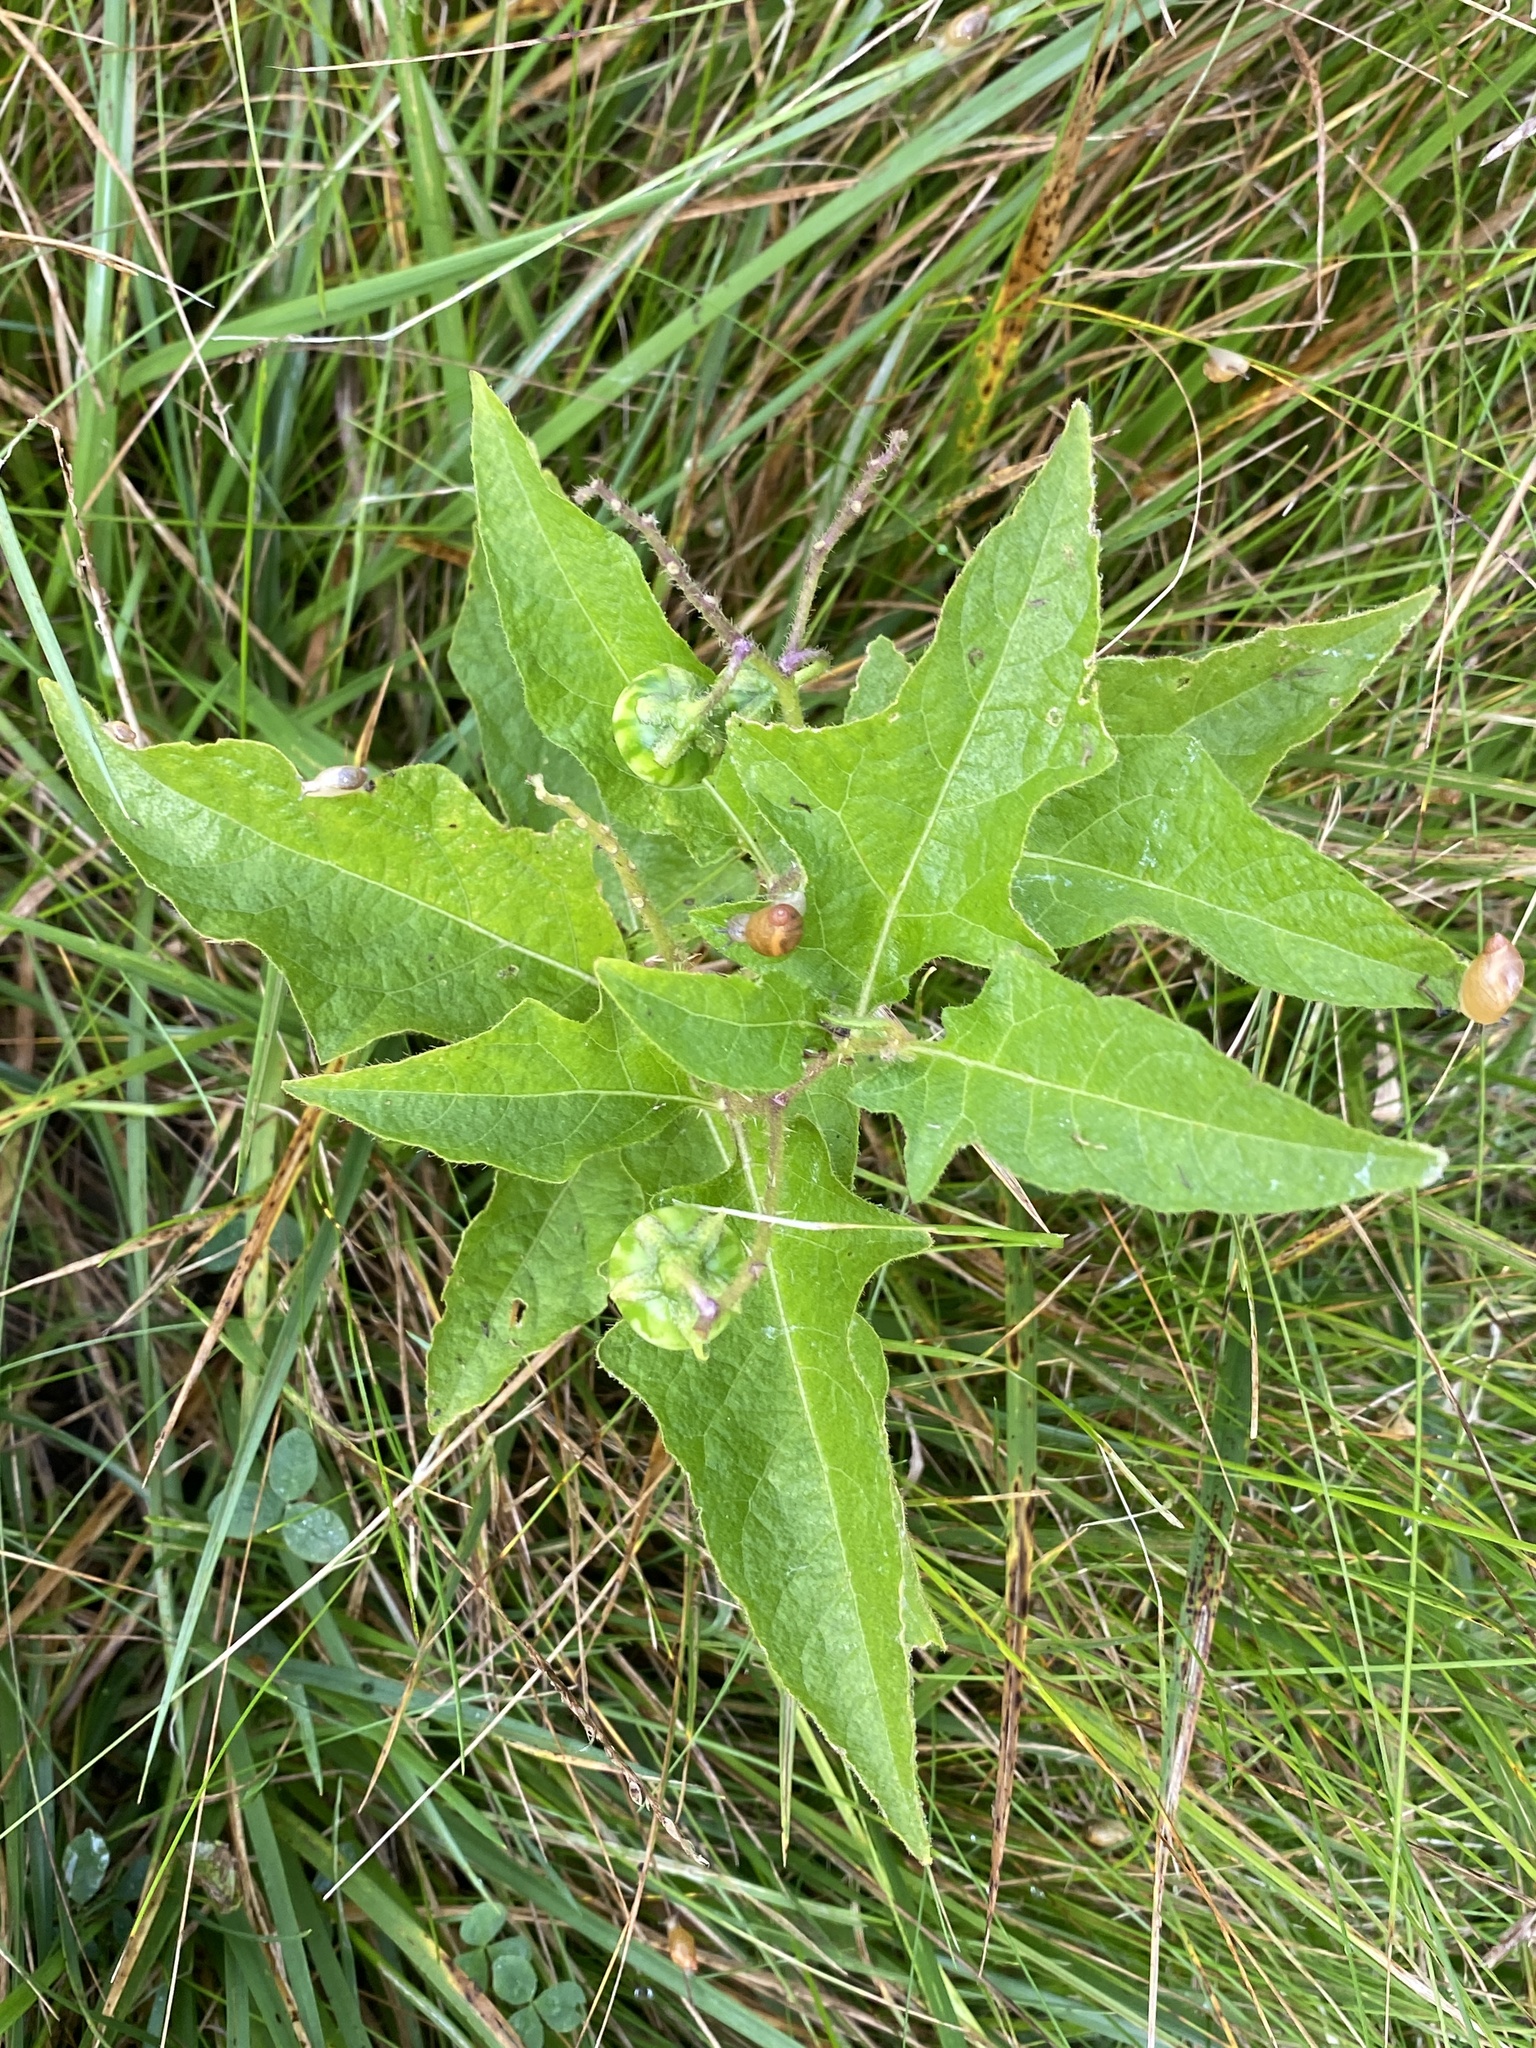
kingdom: Plantae
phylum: Tracheophyta
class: Magnoliopsida
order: Solanales
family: Solanaceae
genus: Solanum
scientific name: Solanum carolinense
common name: Horse-nettle
